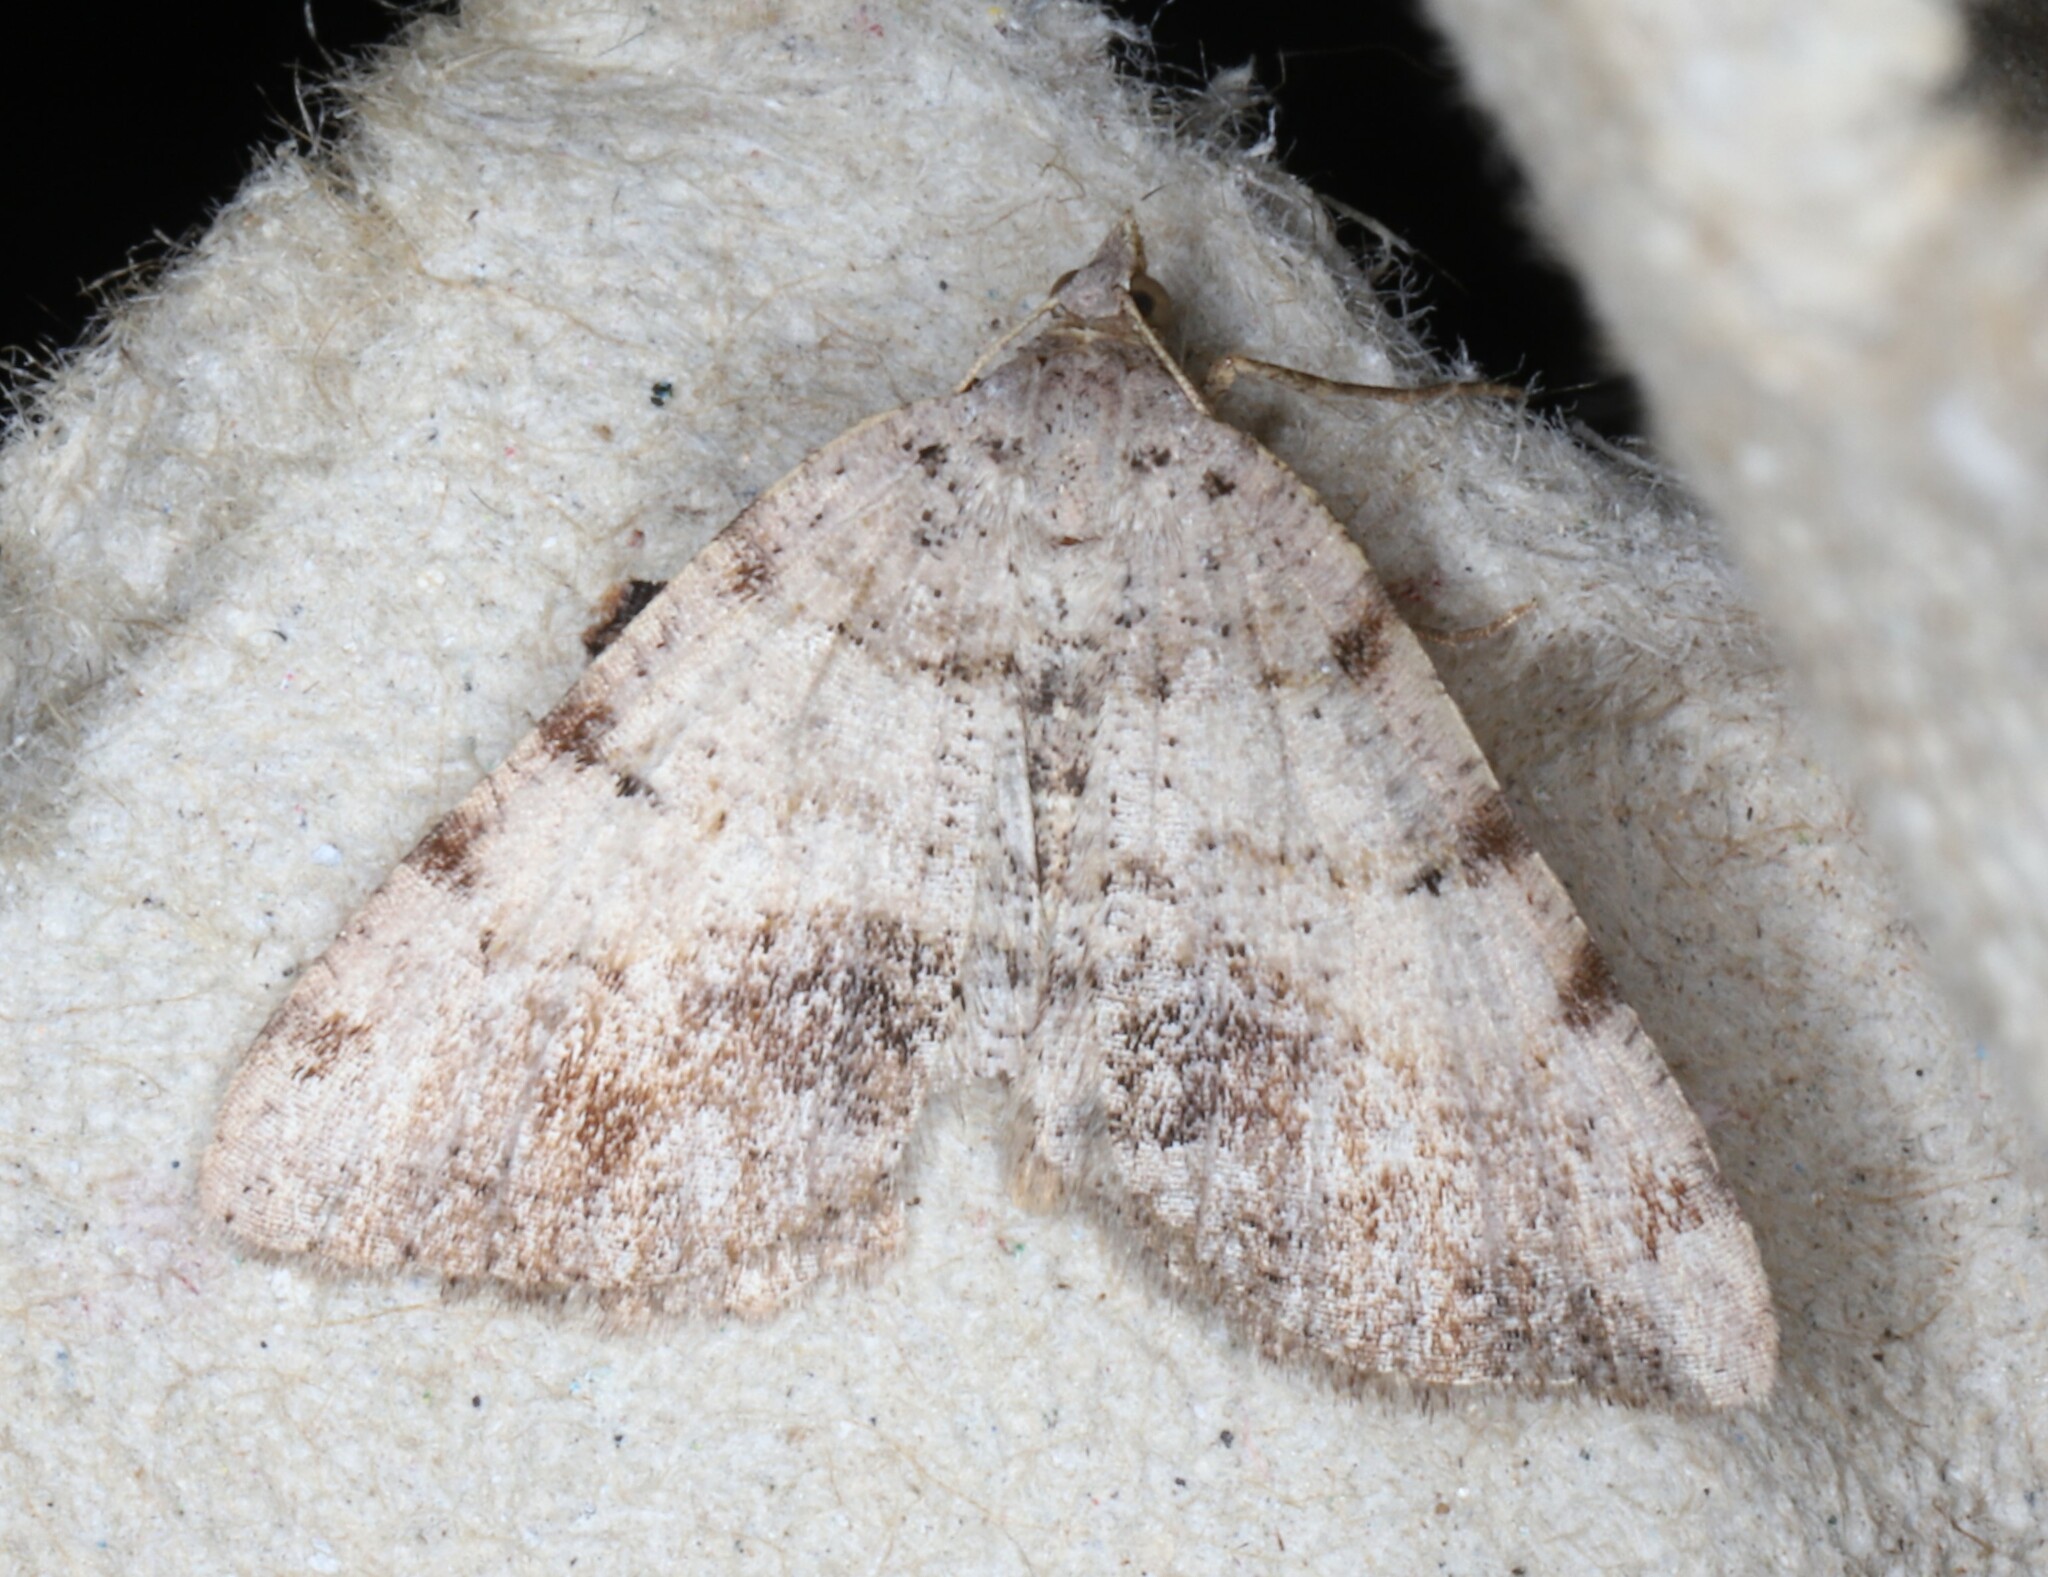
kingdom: Animalia
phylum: Arthropoda
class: Insecta
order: Lepidoptera
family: Geometridae
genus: Macaria
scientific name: Macaria exauspicata
